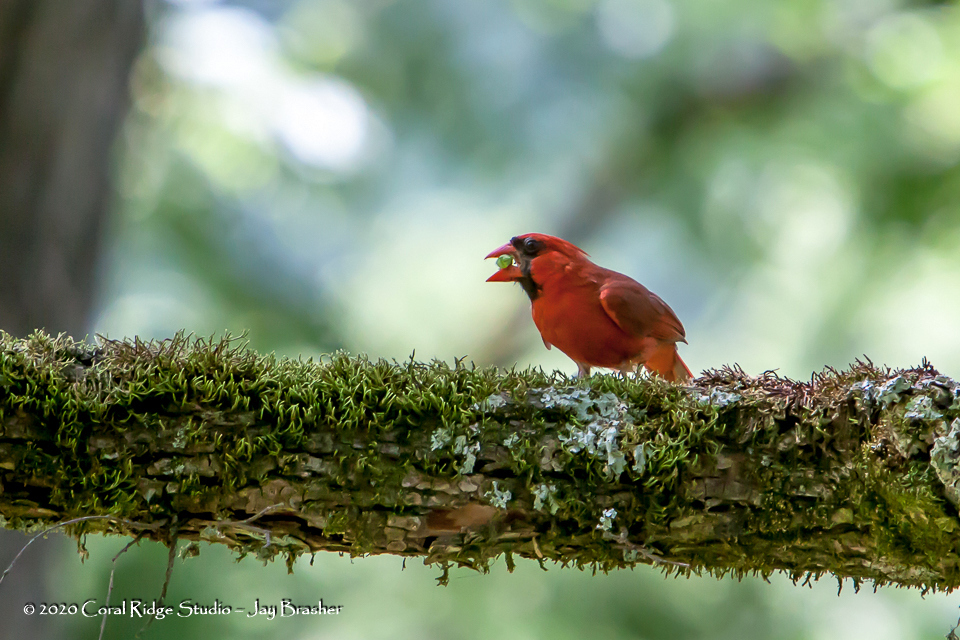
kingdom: Animalia
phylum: Chordata
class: Aves
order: Passeriformes
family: Cardinalidae
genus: Cardinalis
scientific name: Cardinalis cardinalis
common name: Northern cardinal
